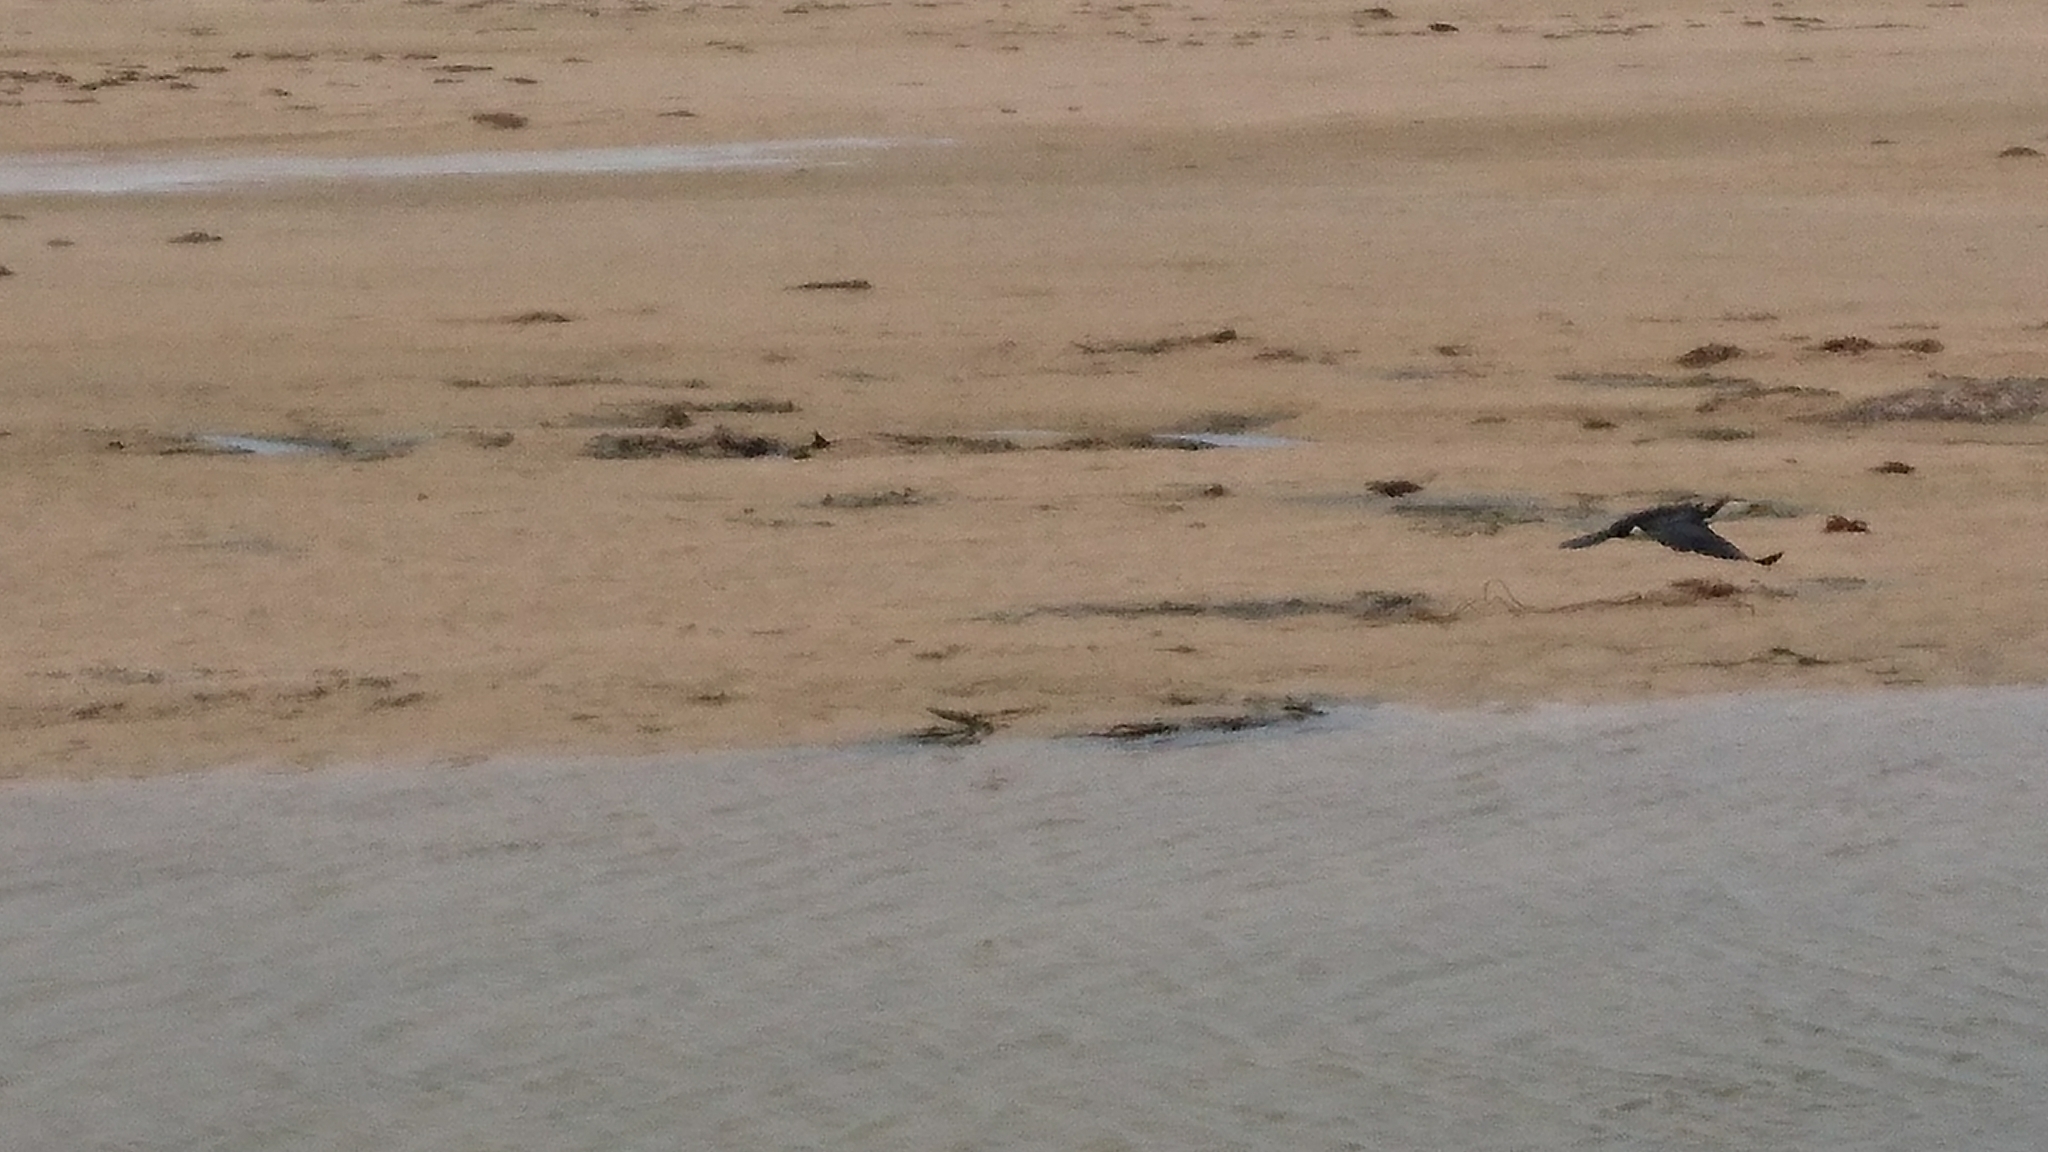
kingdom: Animalia
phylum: Chordata
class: Aves
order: Suliformes
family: Phalacrocoracidae
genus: Microcarbo
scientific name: Microcarbo melanoleucos
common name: Little pied cormorant
